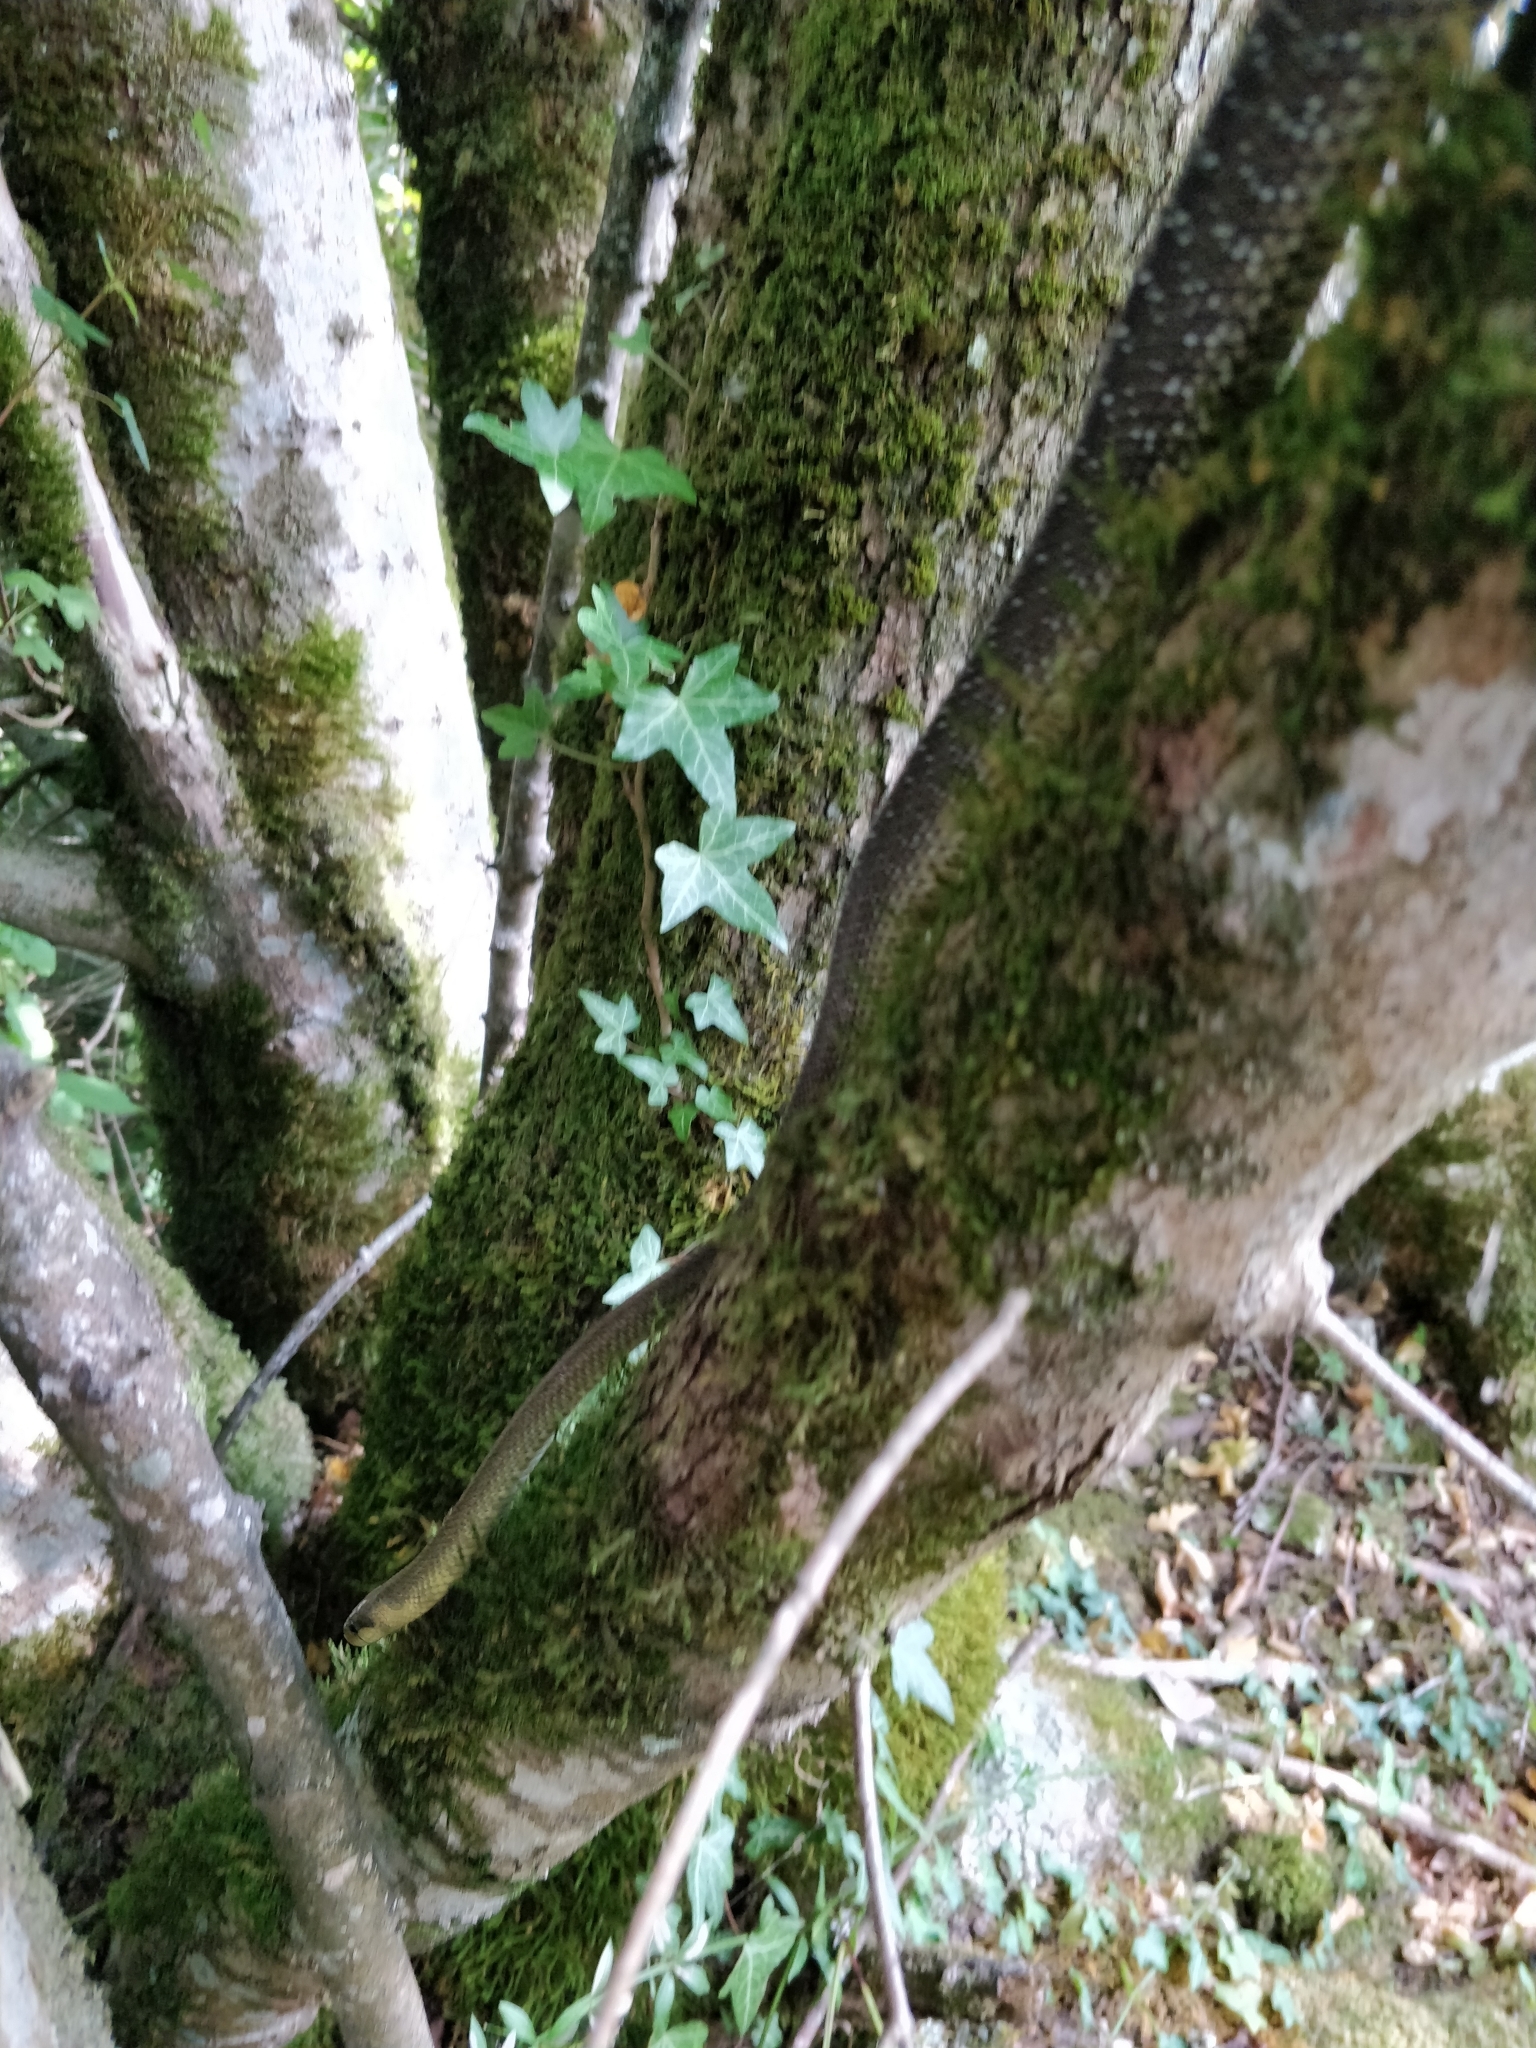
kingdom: Animalia
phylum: Chordata
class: Squamata
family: Colubridae
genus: Zamenis
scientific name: Zamenis longissimus
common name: Aesculapean snake
